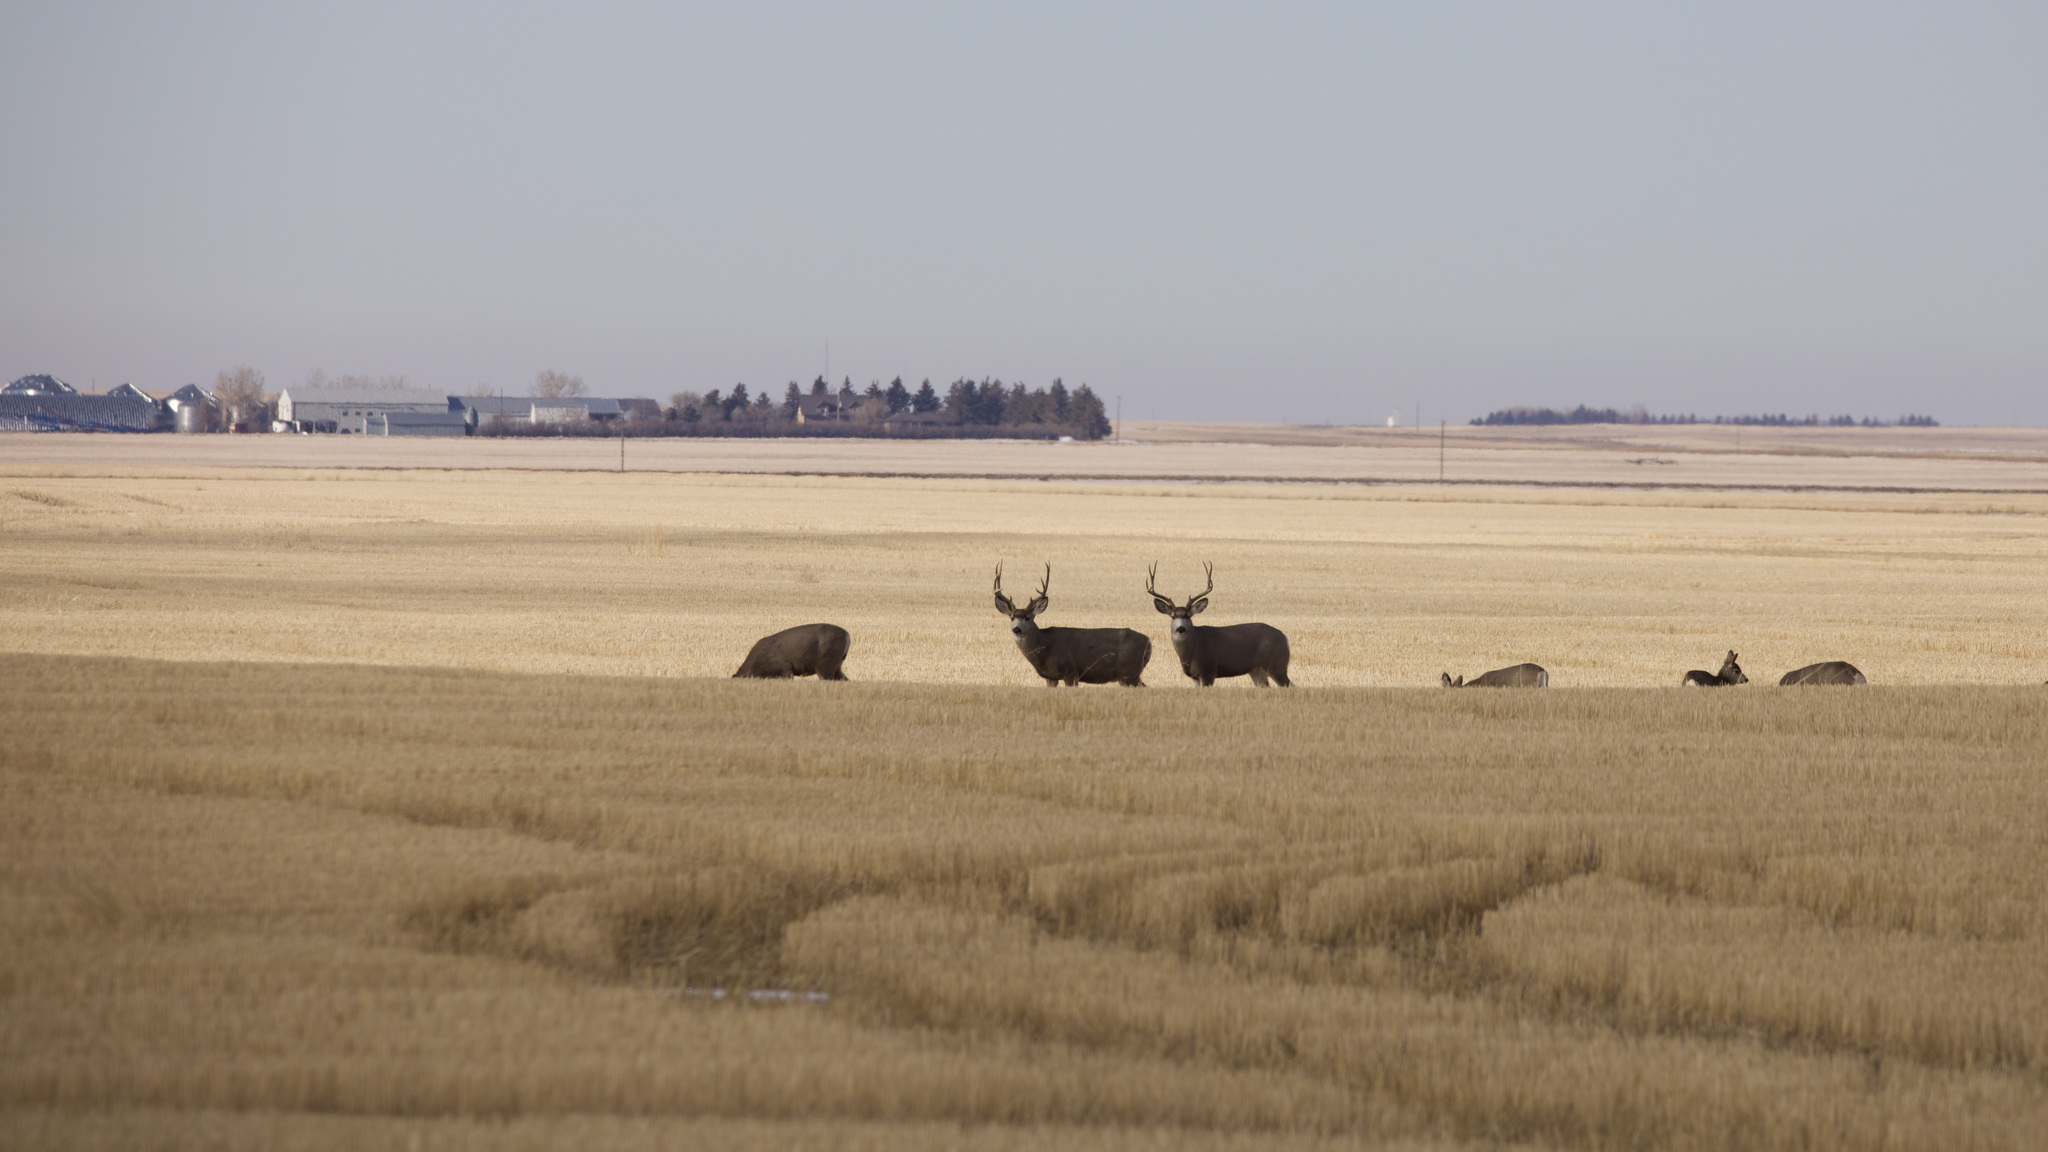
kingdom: Animalia
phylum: Chordata
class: Mammalia
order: Artiodactyla
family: Cervidae
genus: Odocoileus
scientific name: Odocoileus hemionus
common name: Mule deer
